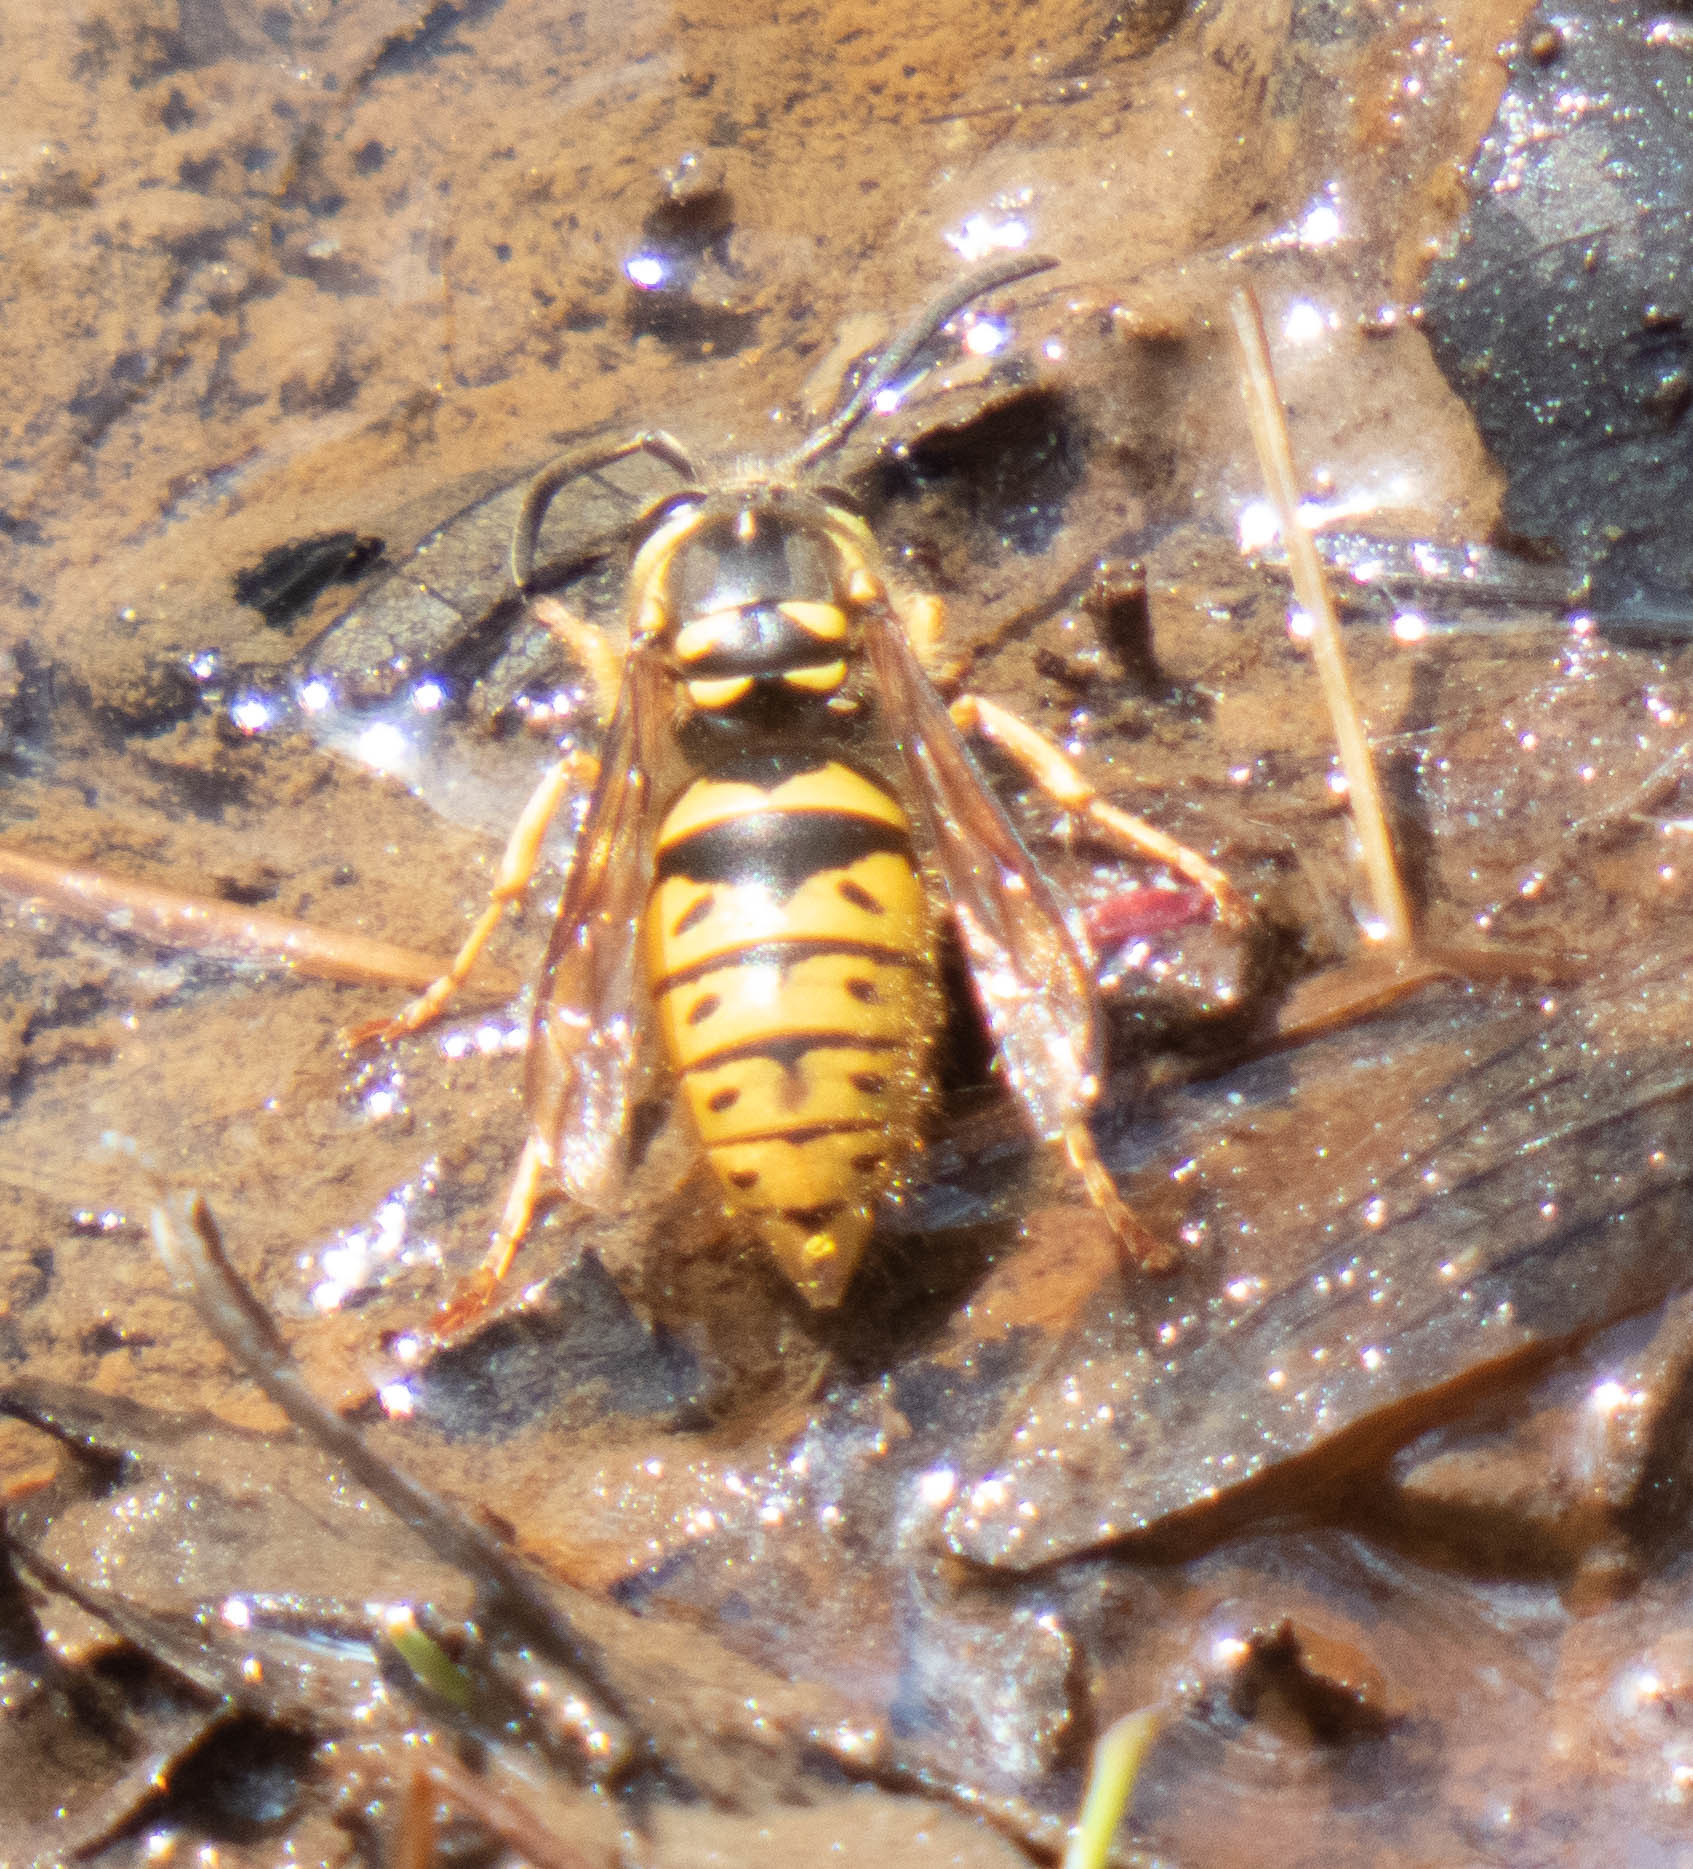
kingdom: Animalia
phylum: Arthropoda
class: Insecta
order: Hymenoptera
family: Vespidae
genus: Vespula
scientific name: Vespula flavopilosa
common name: Downy yellowjacket
